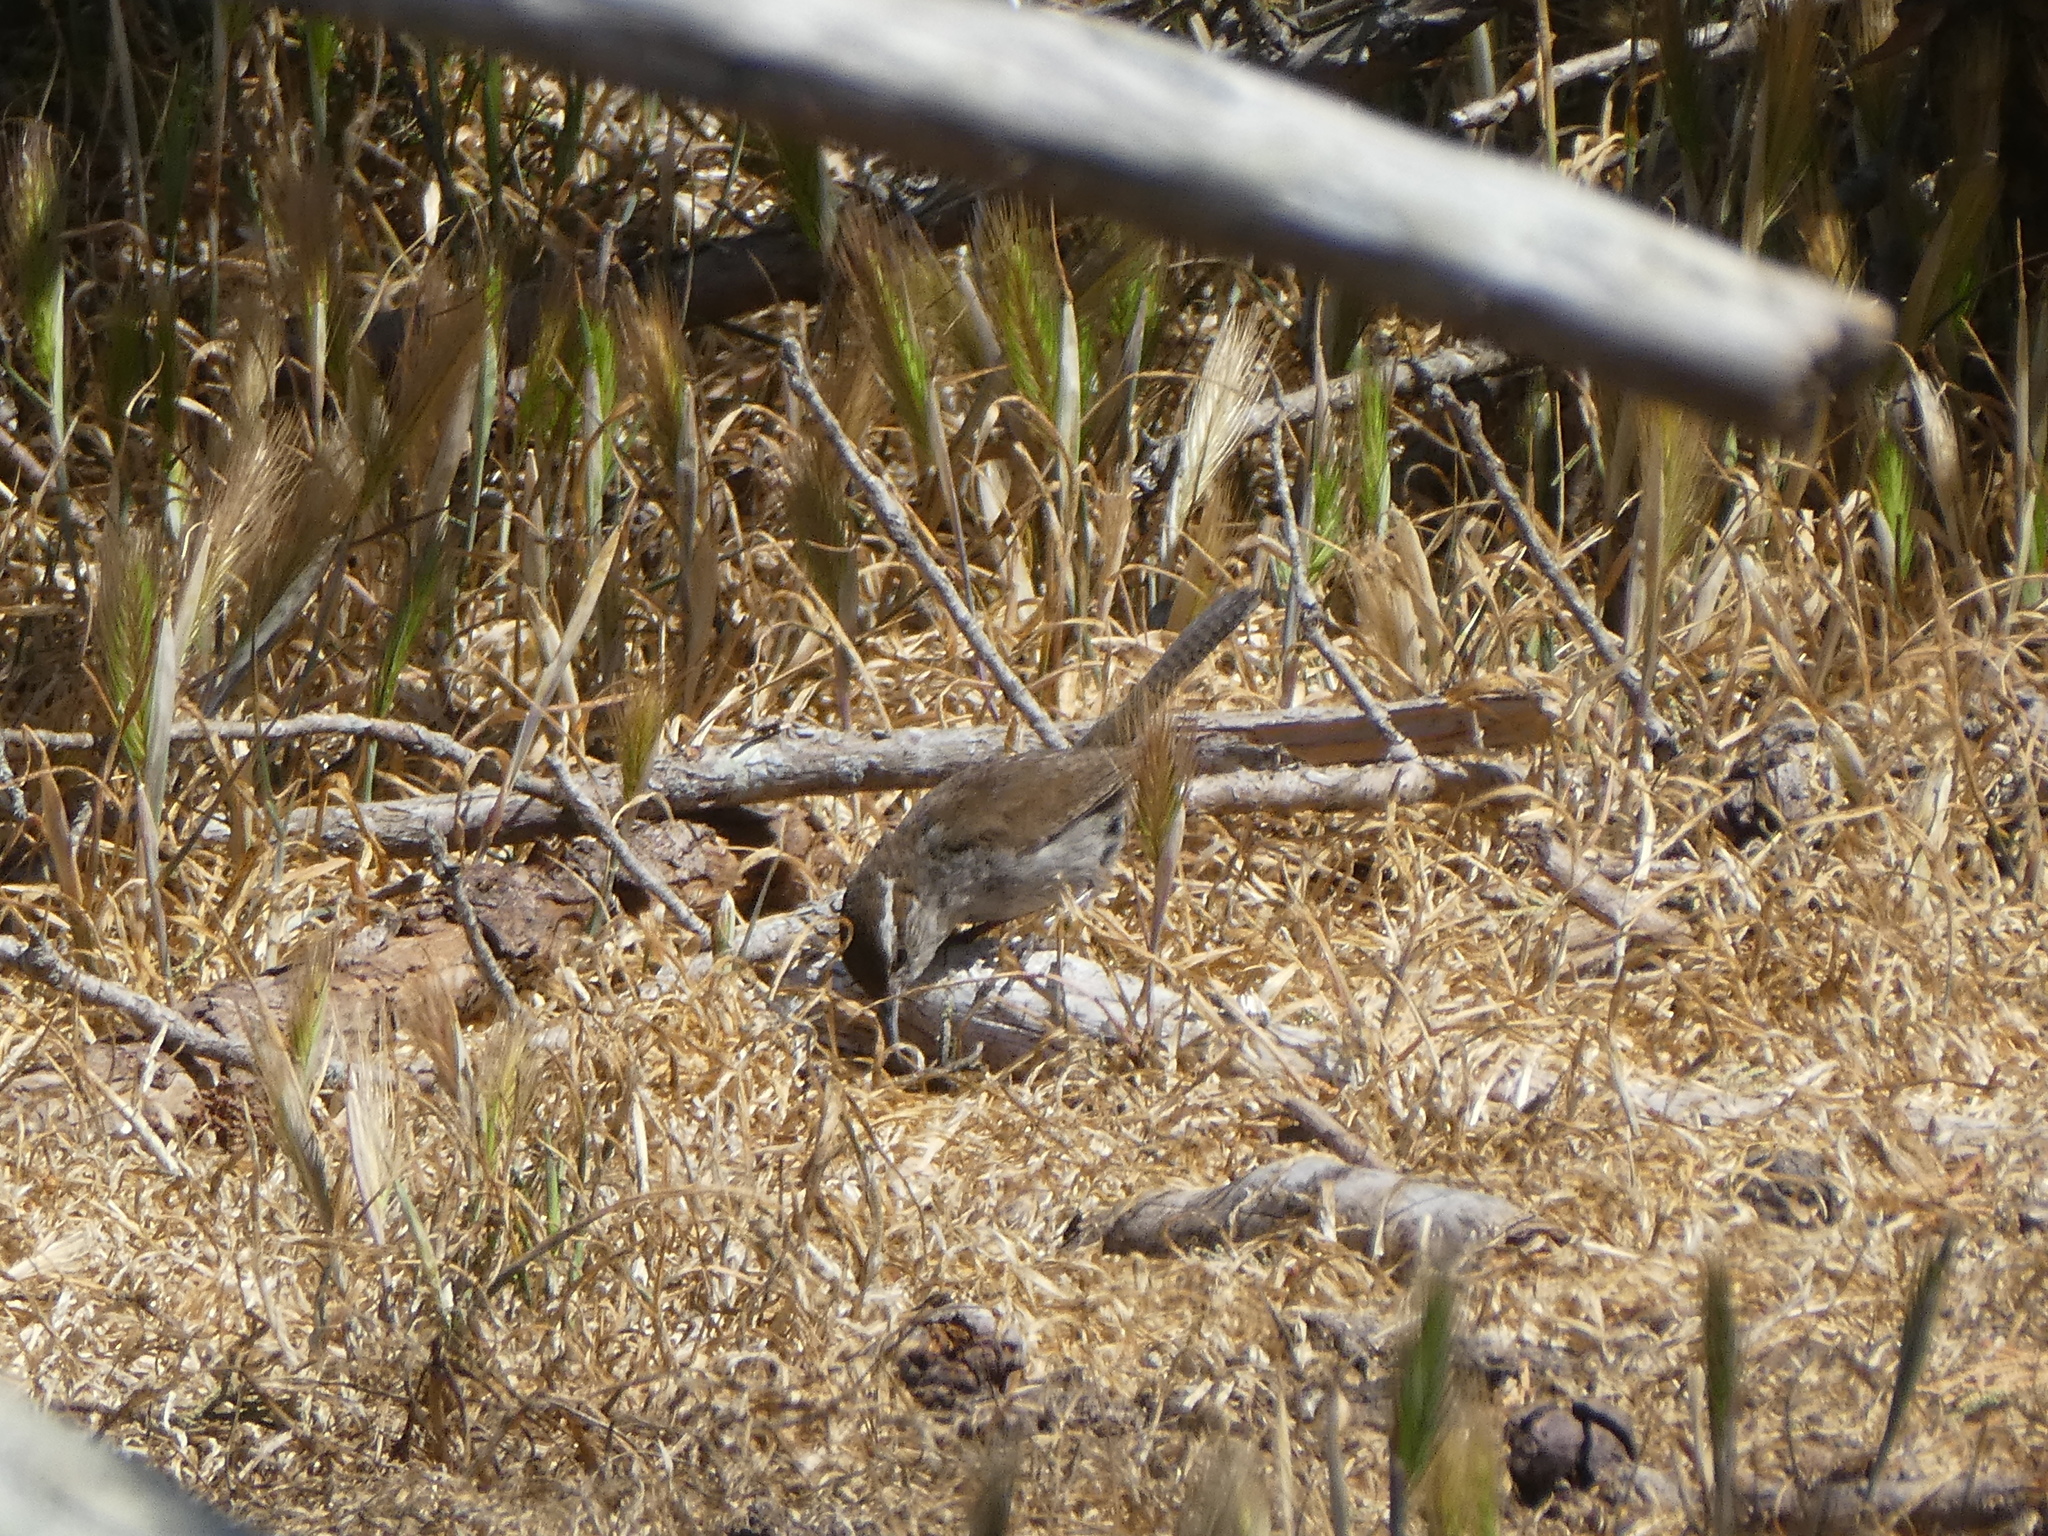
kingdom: Animalia
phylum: Chordata
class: Aves
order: Passeriformes
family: Troglodytidae
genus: Thryomanes
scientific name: Thryomanes bewickii
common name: Bewick's wren
